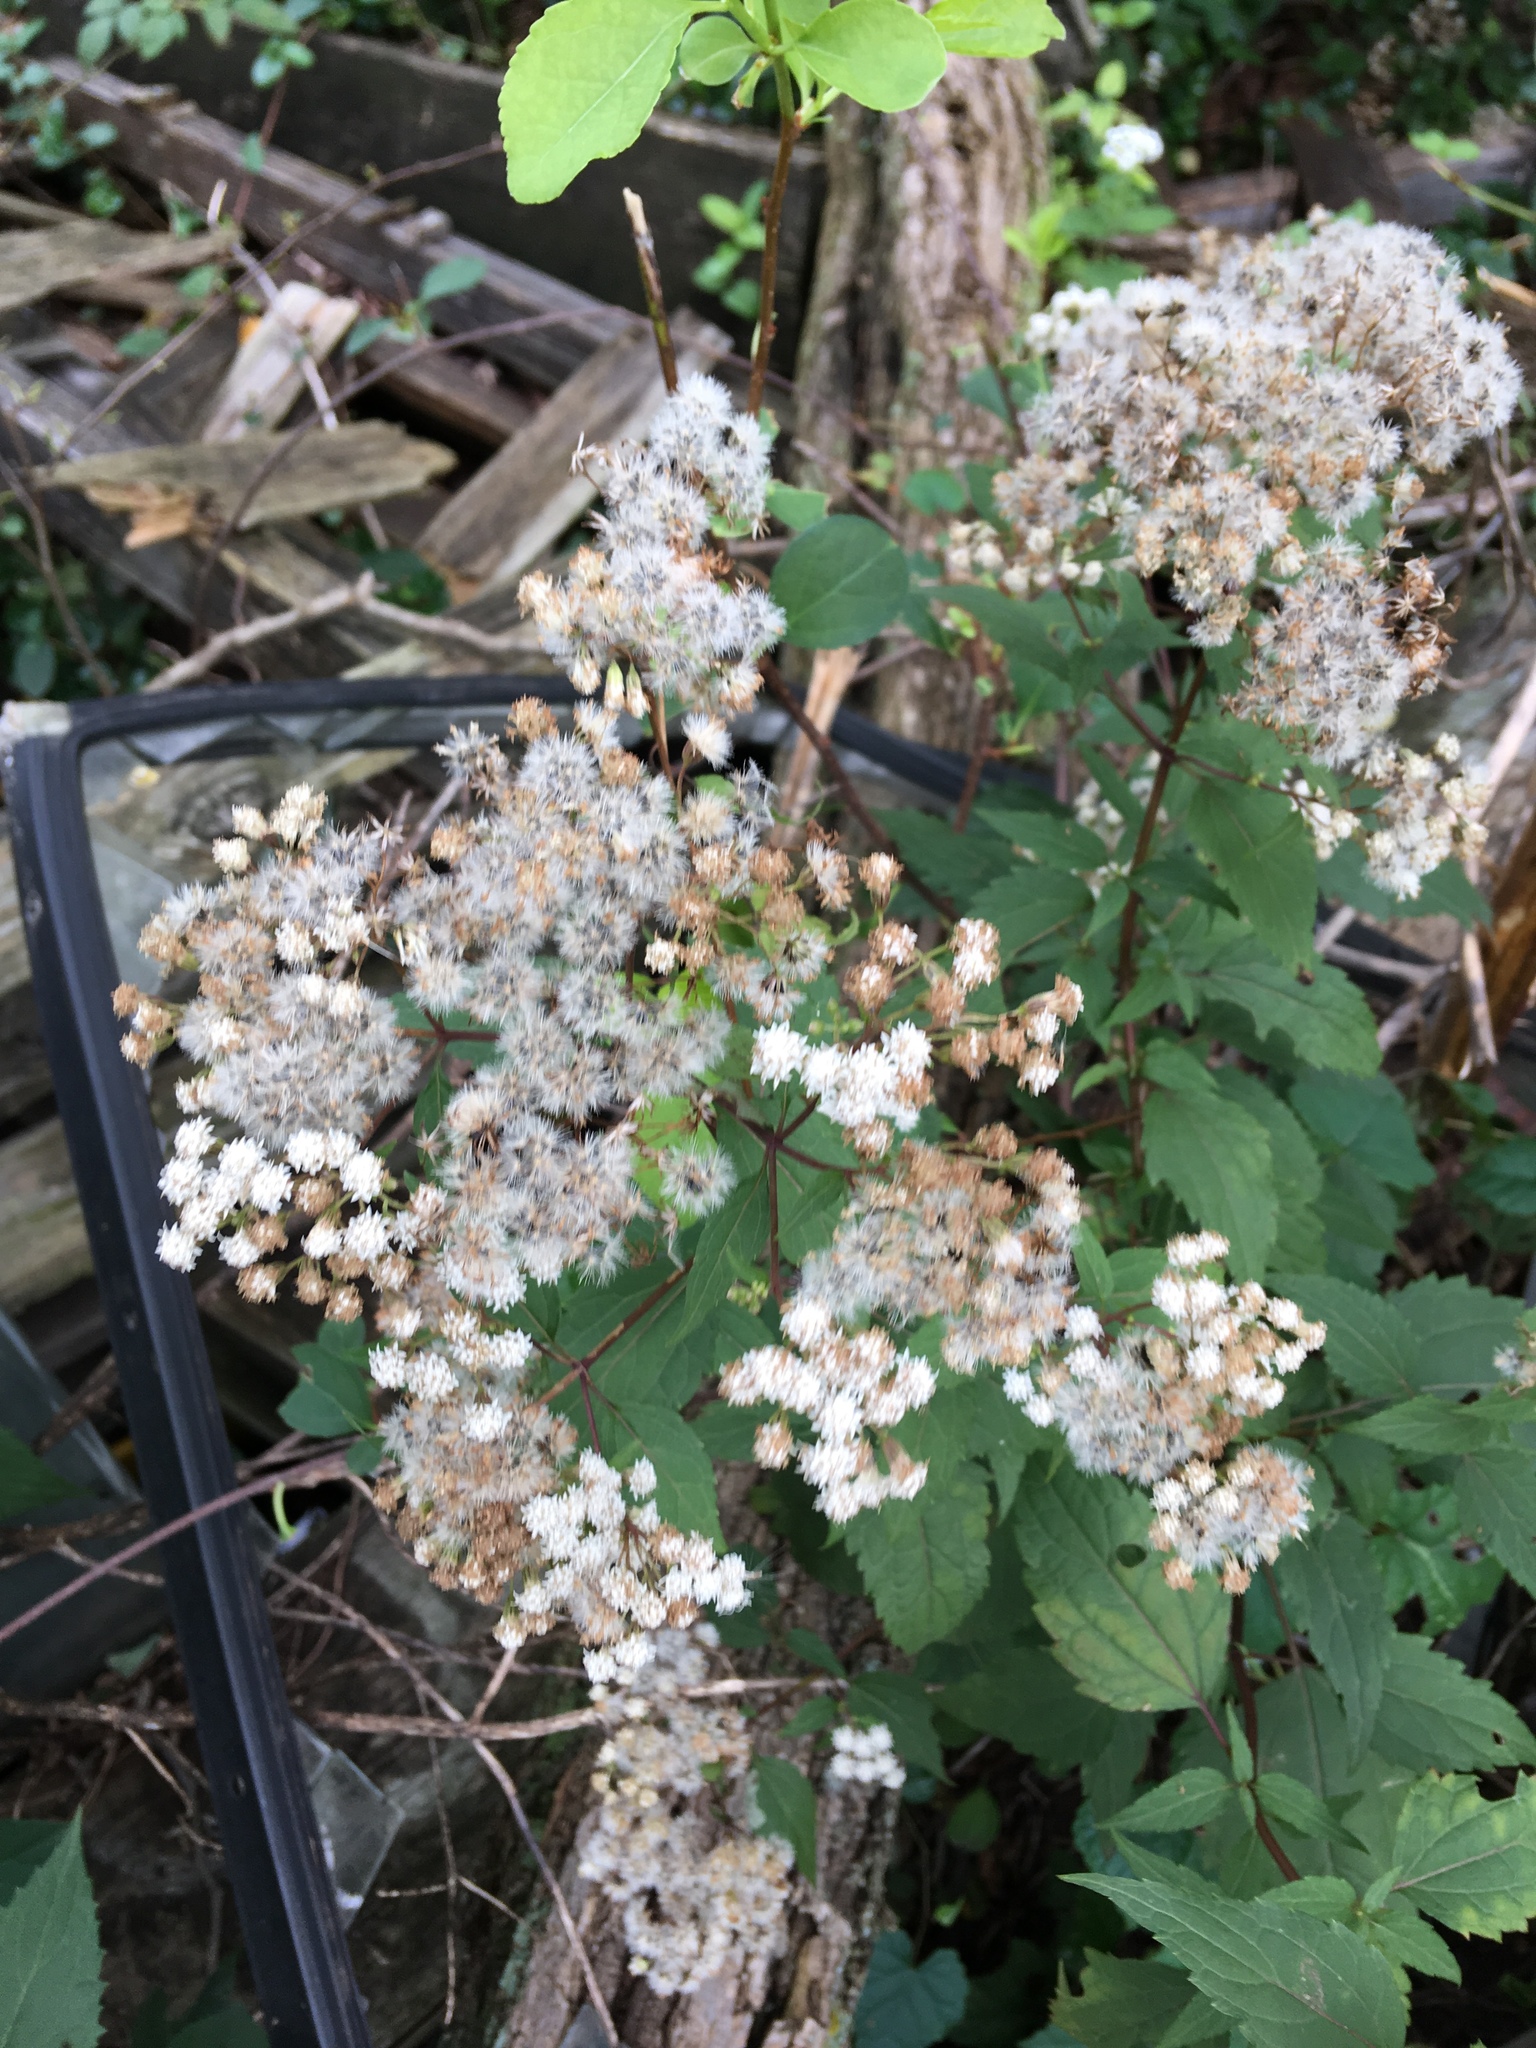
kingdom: Plantae
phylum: Tracheophyta
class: Magnoliopsida
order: Asterales
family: Asteraceae
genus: Ageratina
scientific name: Ageratina altissima
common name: White snakeroot
